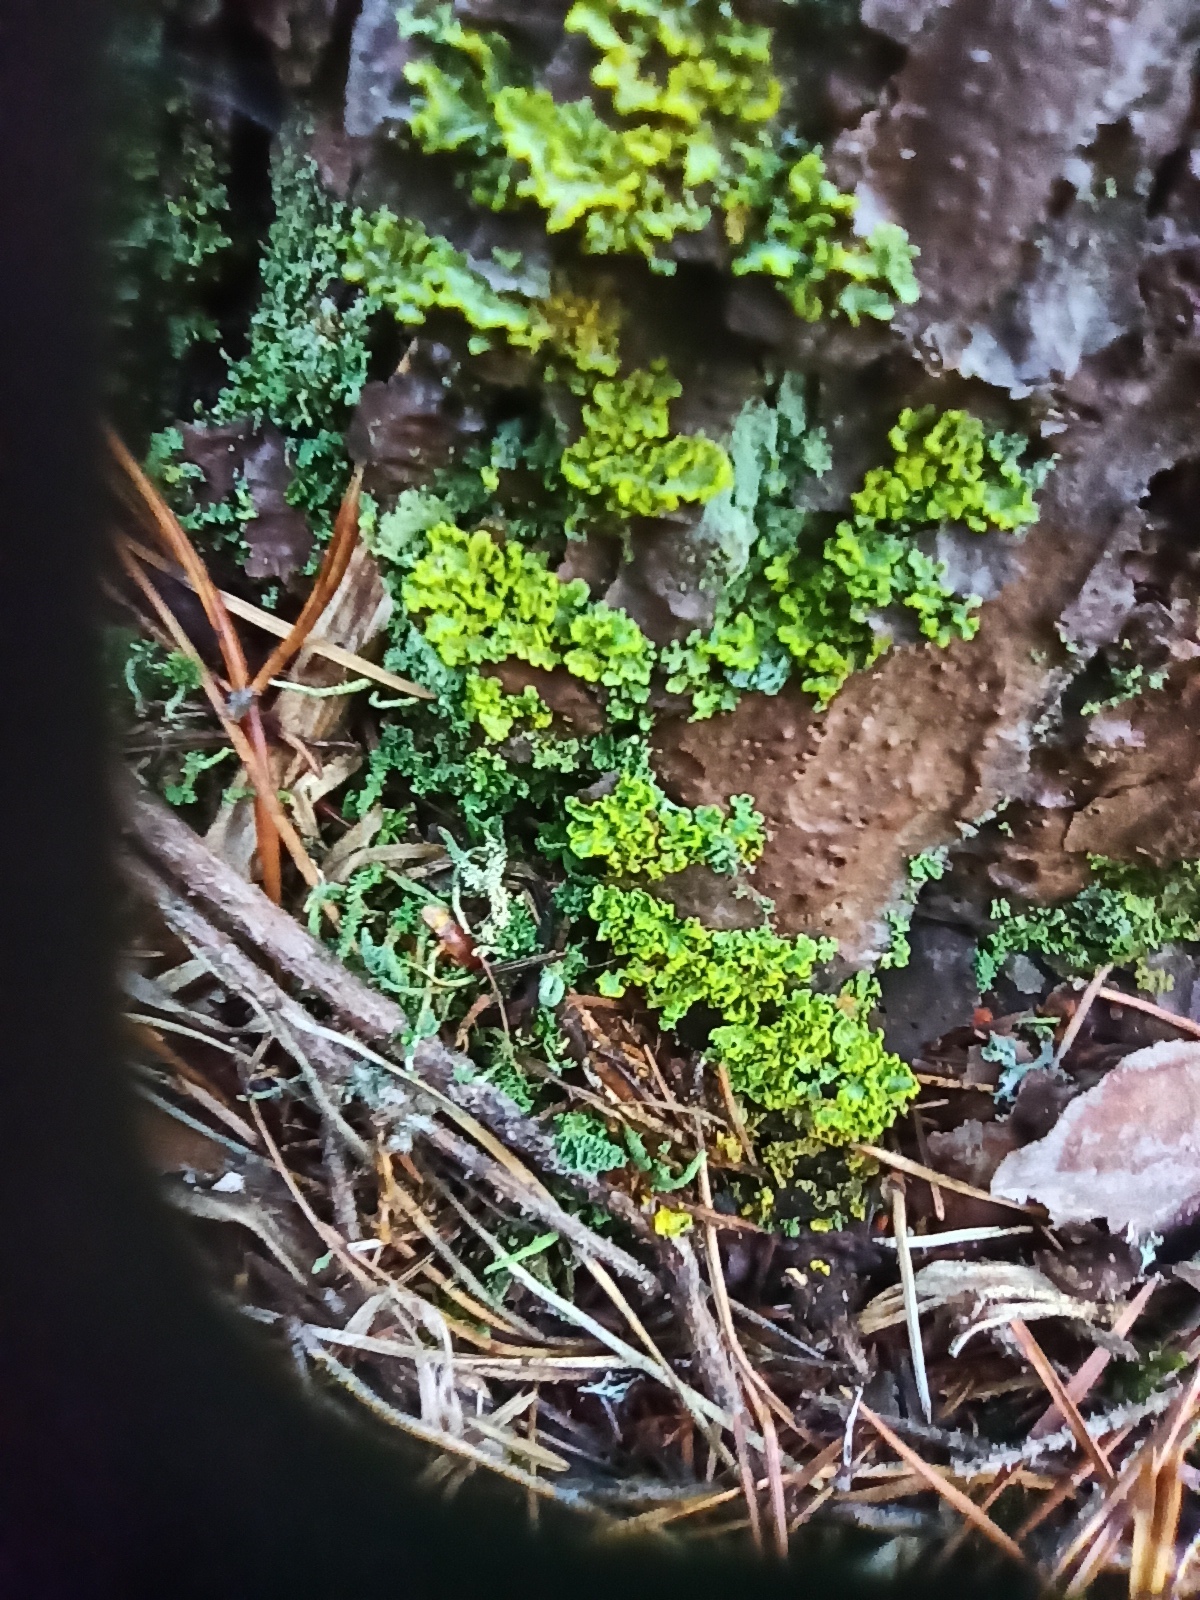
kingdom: Fungi
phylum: Ascomycota
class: Lecanoromycetes
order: Lecanorales
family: Parmeliaceae
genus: Vulpicida
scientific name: Vulpicida pinastri
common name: Powdered sunshine lichen
